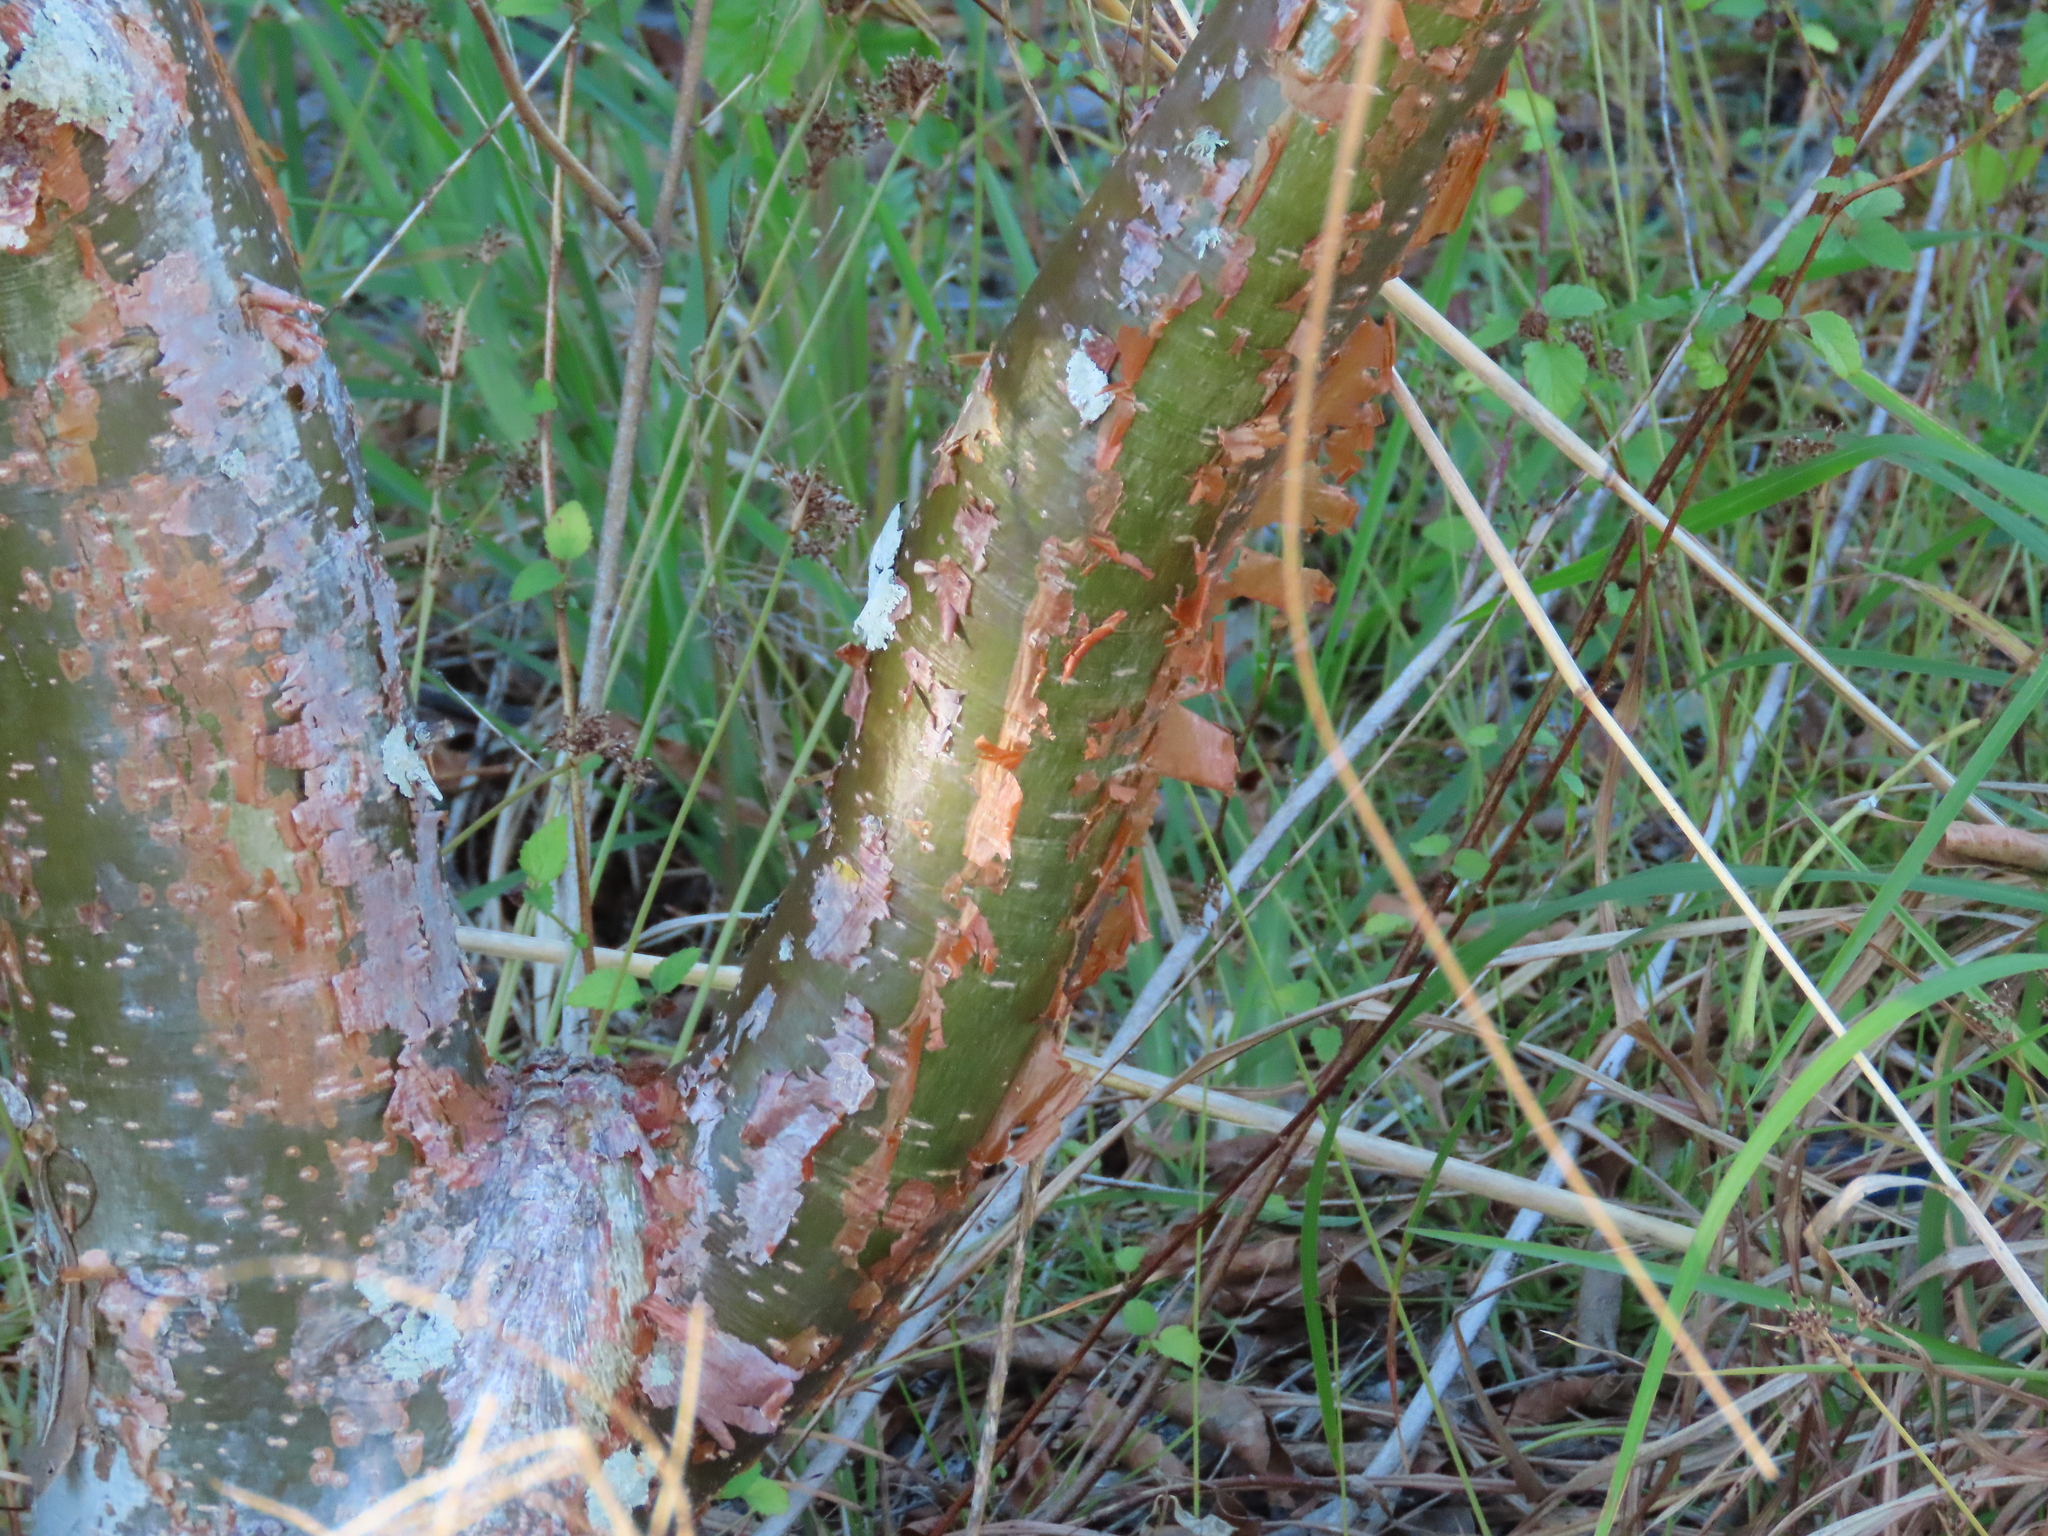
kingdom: Plantae
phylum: Tracheophyta
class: Magnoliopsida
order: Sapindales
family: Burseraceae
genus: Bursera
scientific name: Bursera simaruba
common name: Turpentine tree
